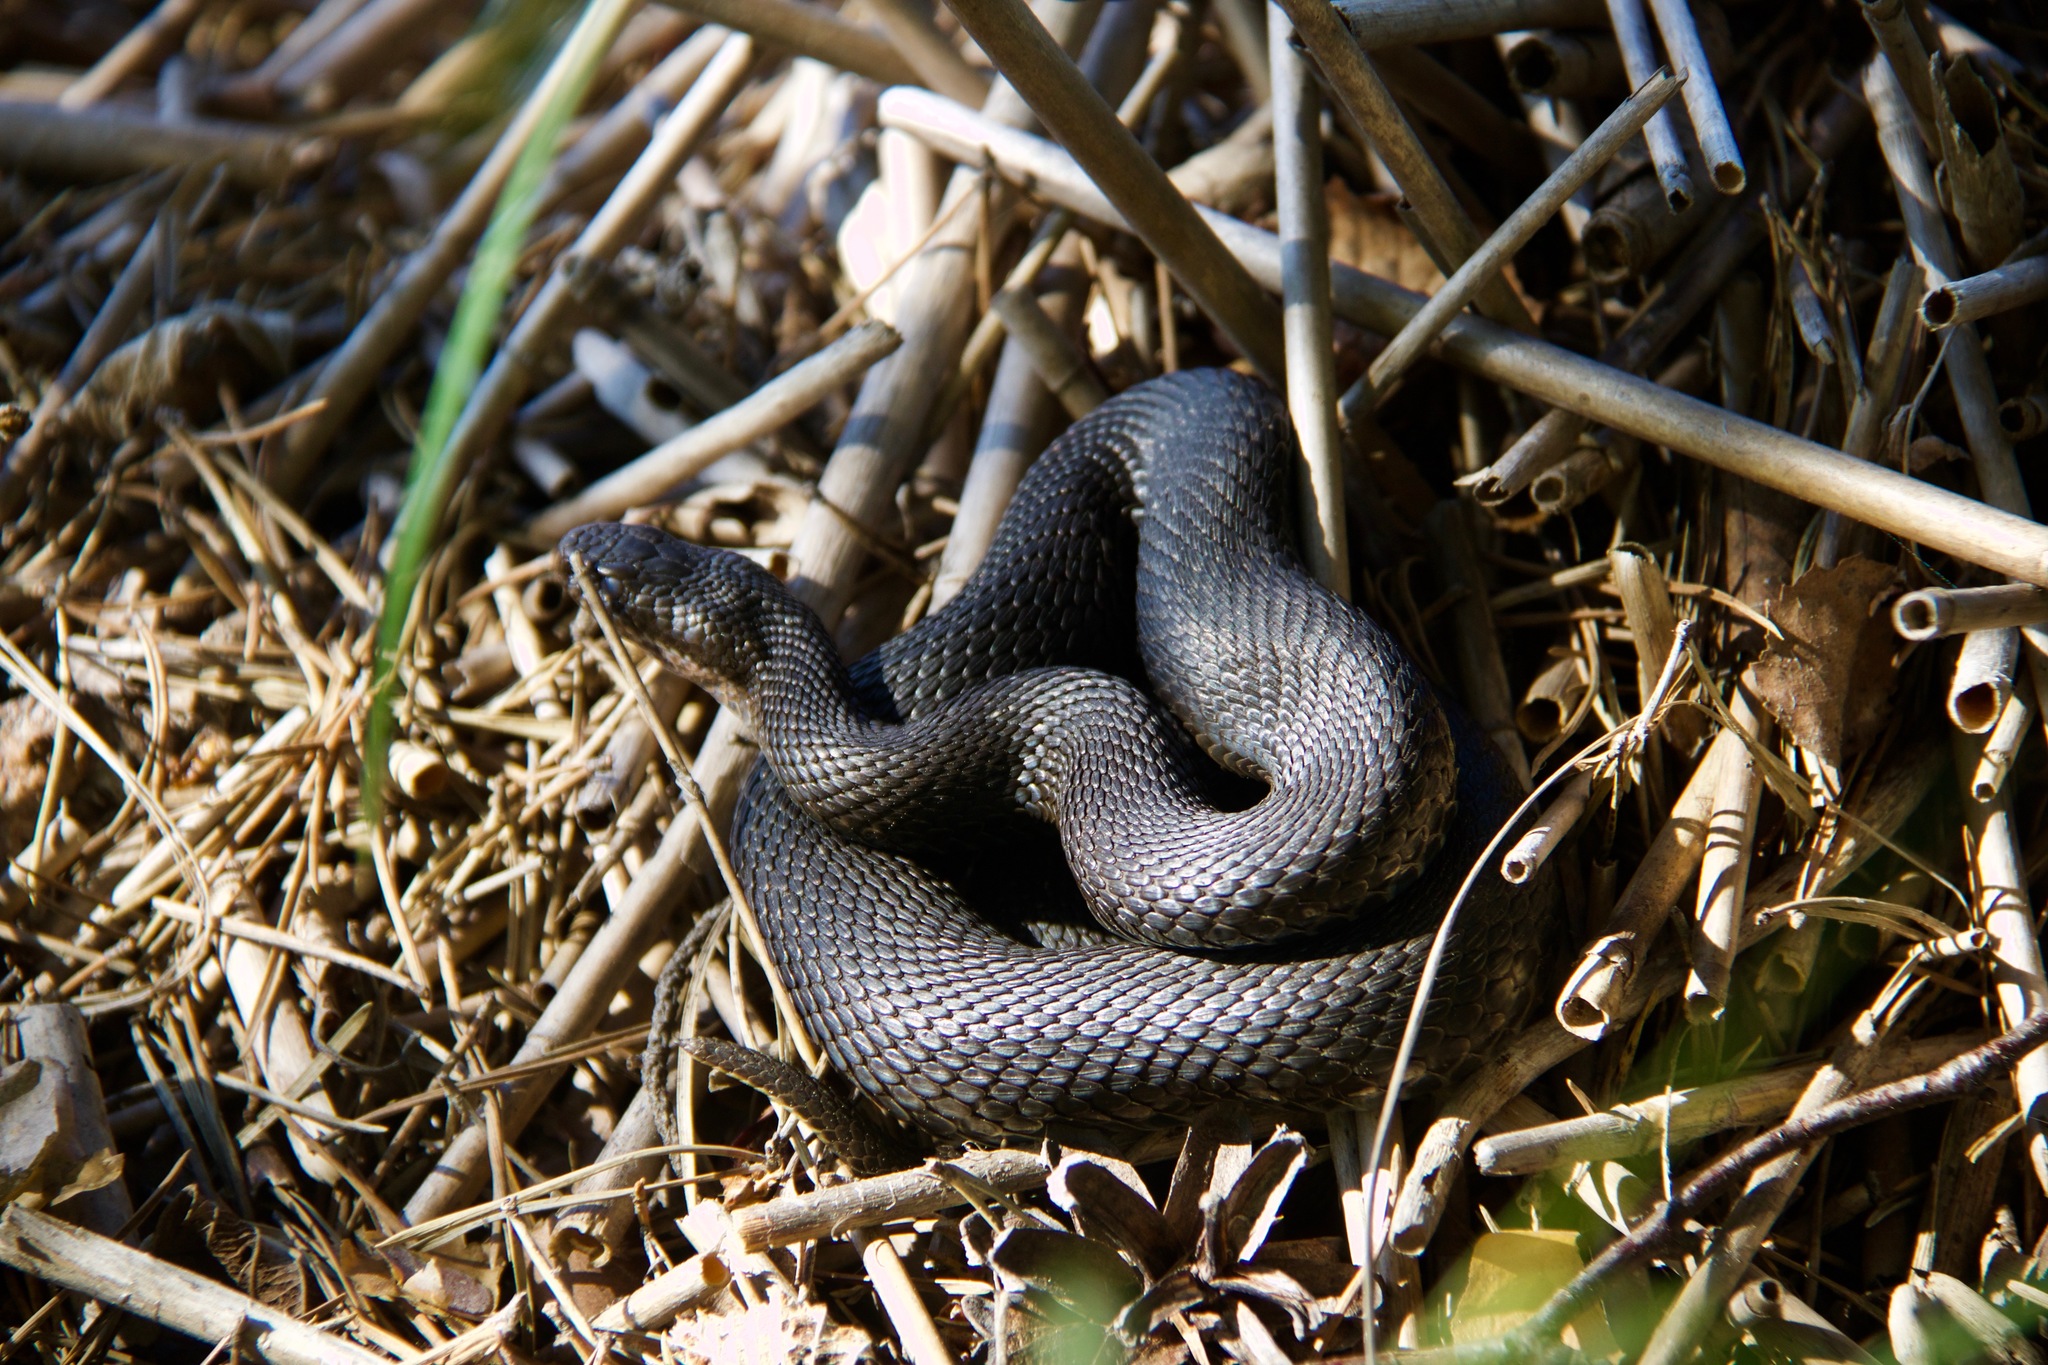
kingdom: Animalia
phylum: Chordata
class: Squamata
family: Viperidae
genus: Vipera
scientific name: Vipera berus
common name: Adder
